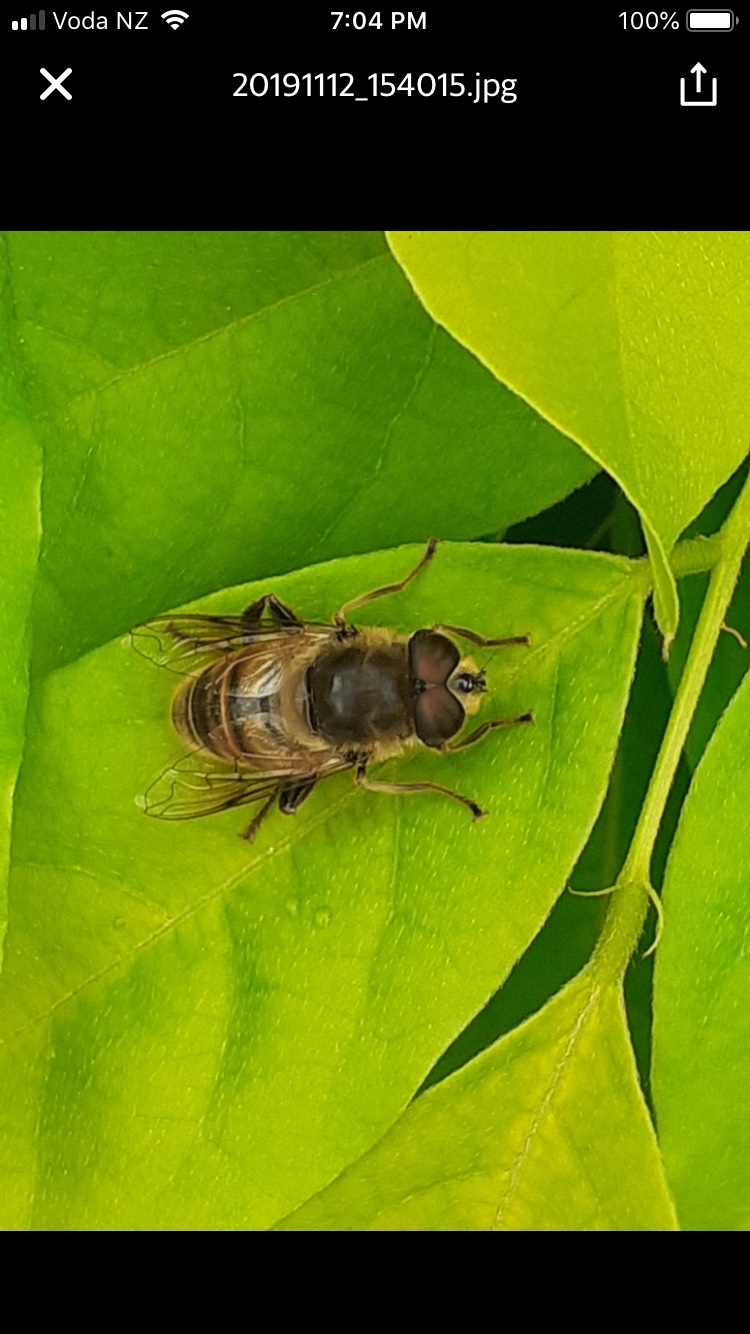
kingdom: Animalia
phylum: Arthropoda
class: Insecta
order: Diptera
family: Syrphidae
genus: Eristalis
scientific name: Eristalis tenax
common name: Drone fly
